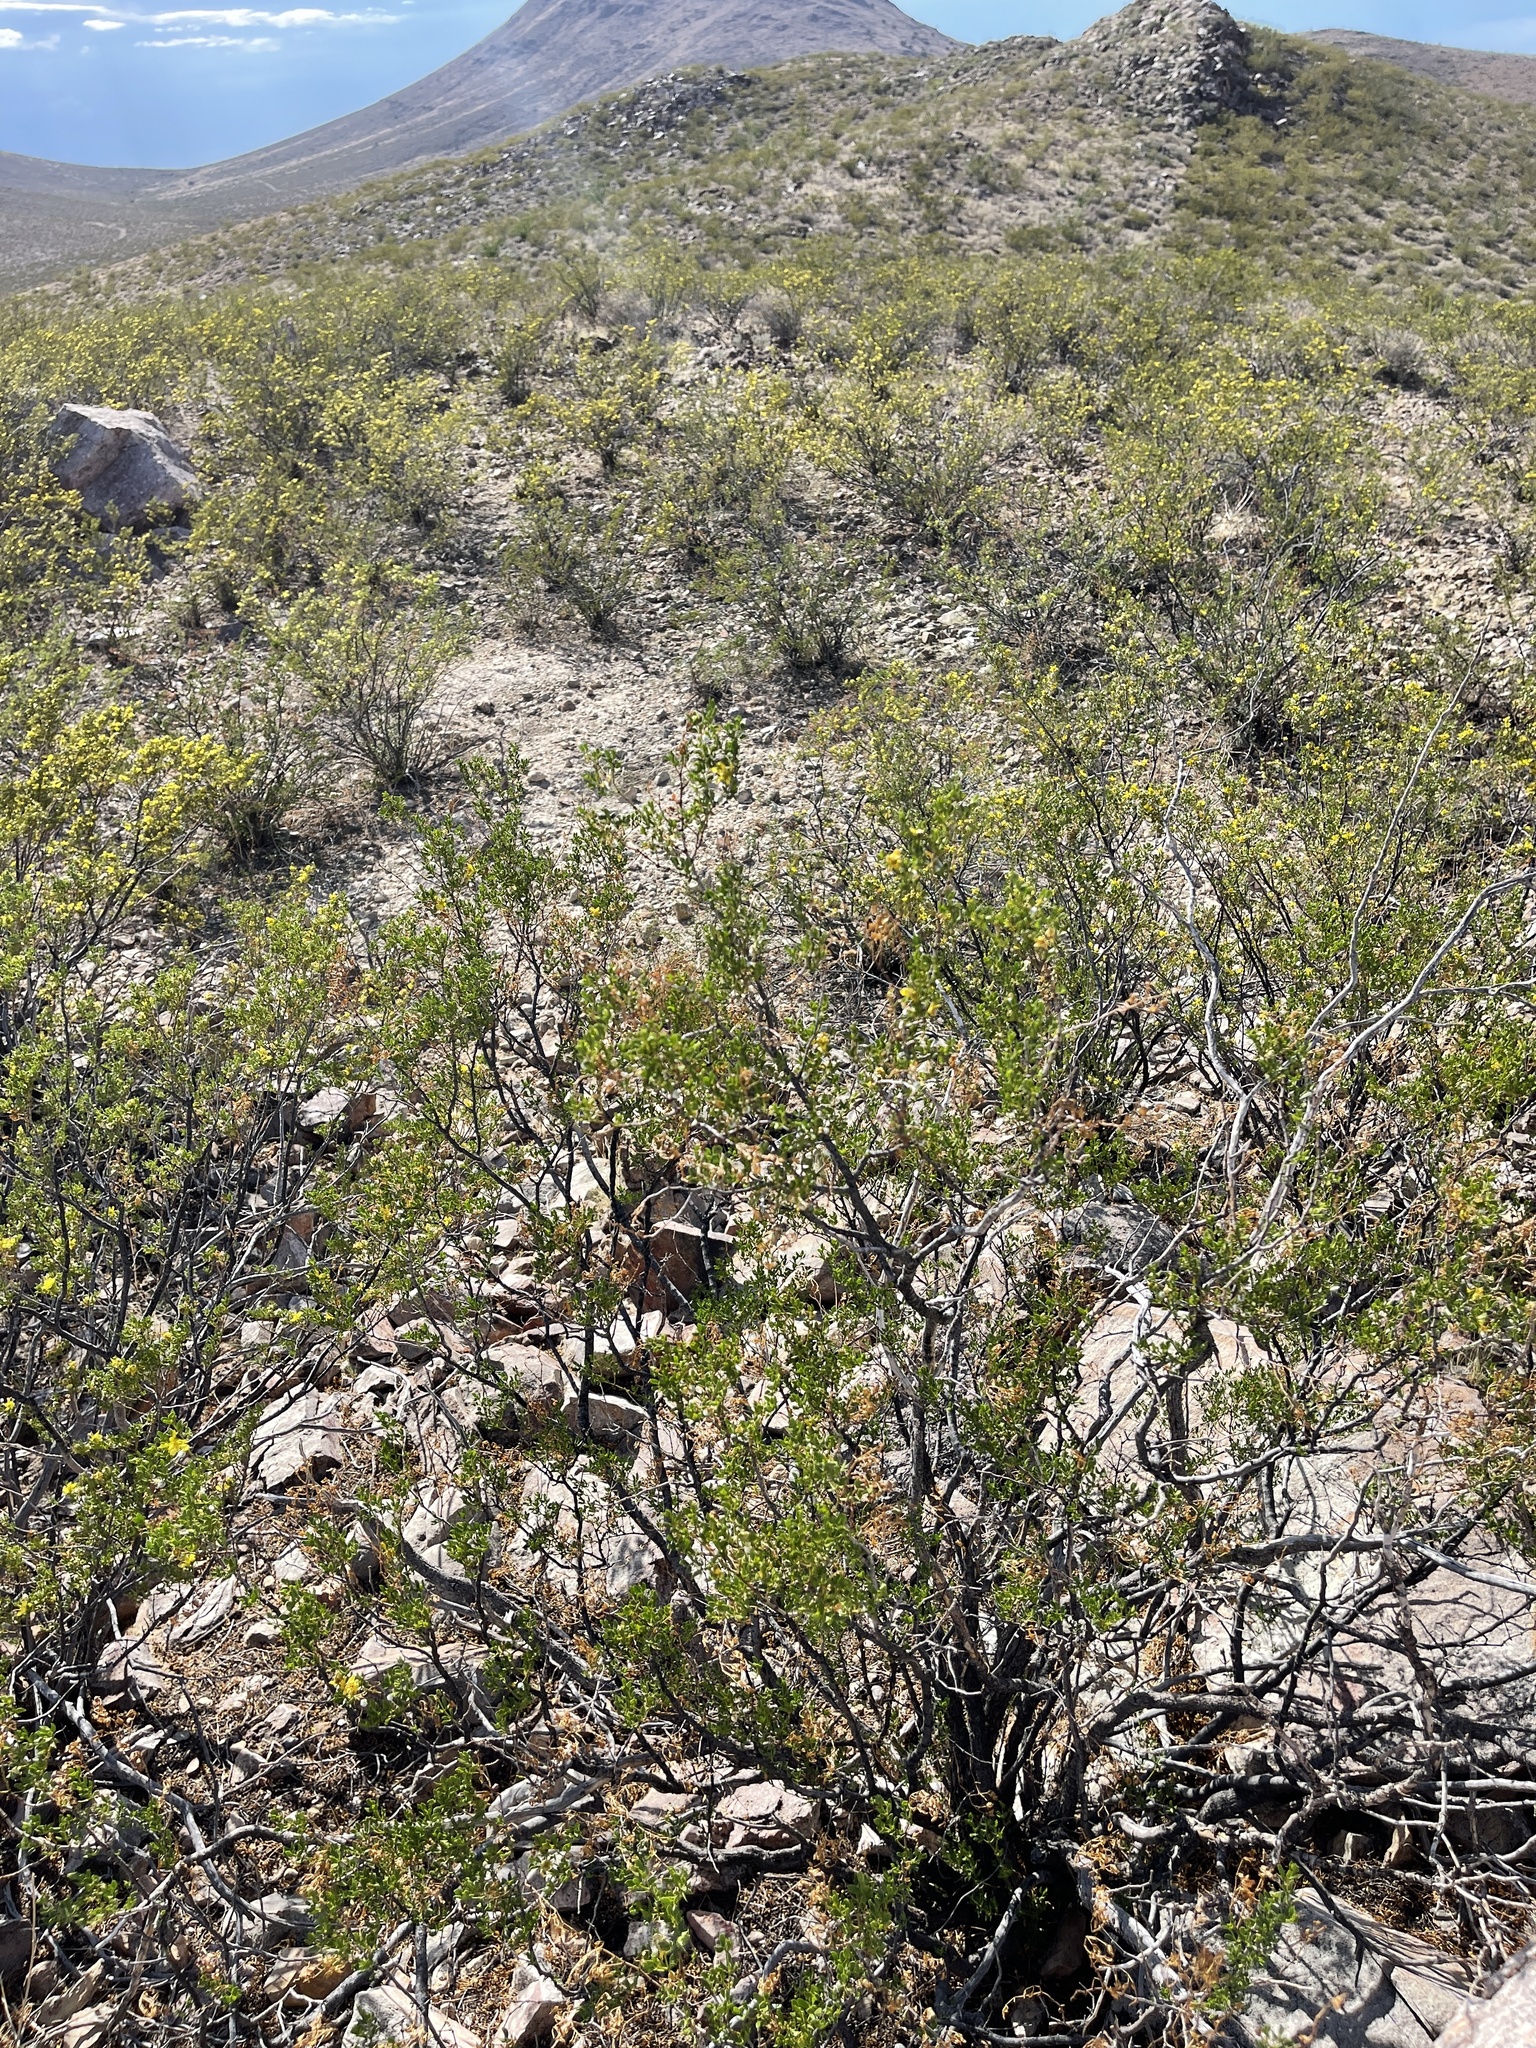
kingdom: Plantae
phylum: Tracheophyta
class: Magnoliopsida
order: Zygophyllales
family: Zygophyllaceae
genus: Larrea
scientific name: Larrea tridentata
